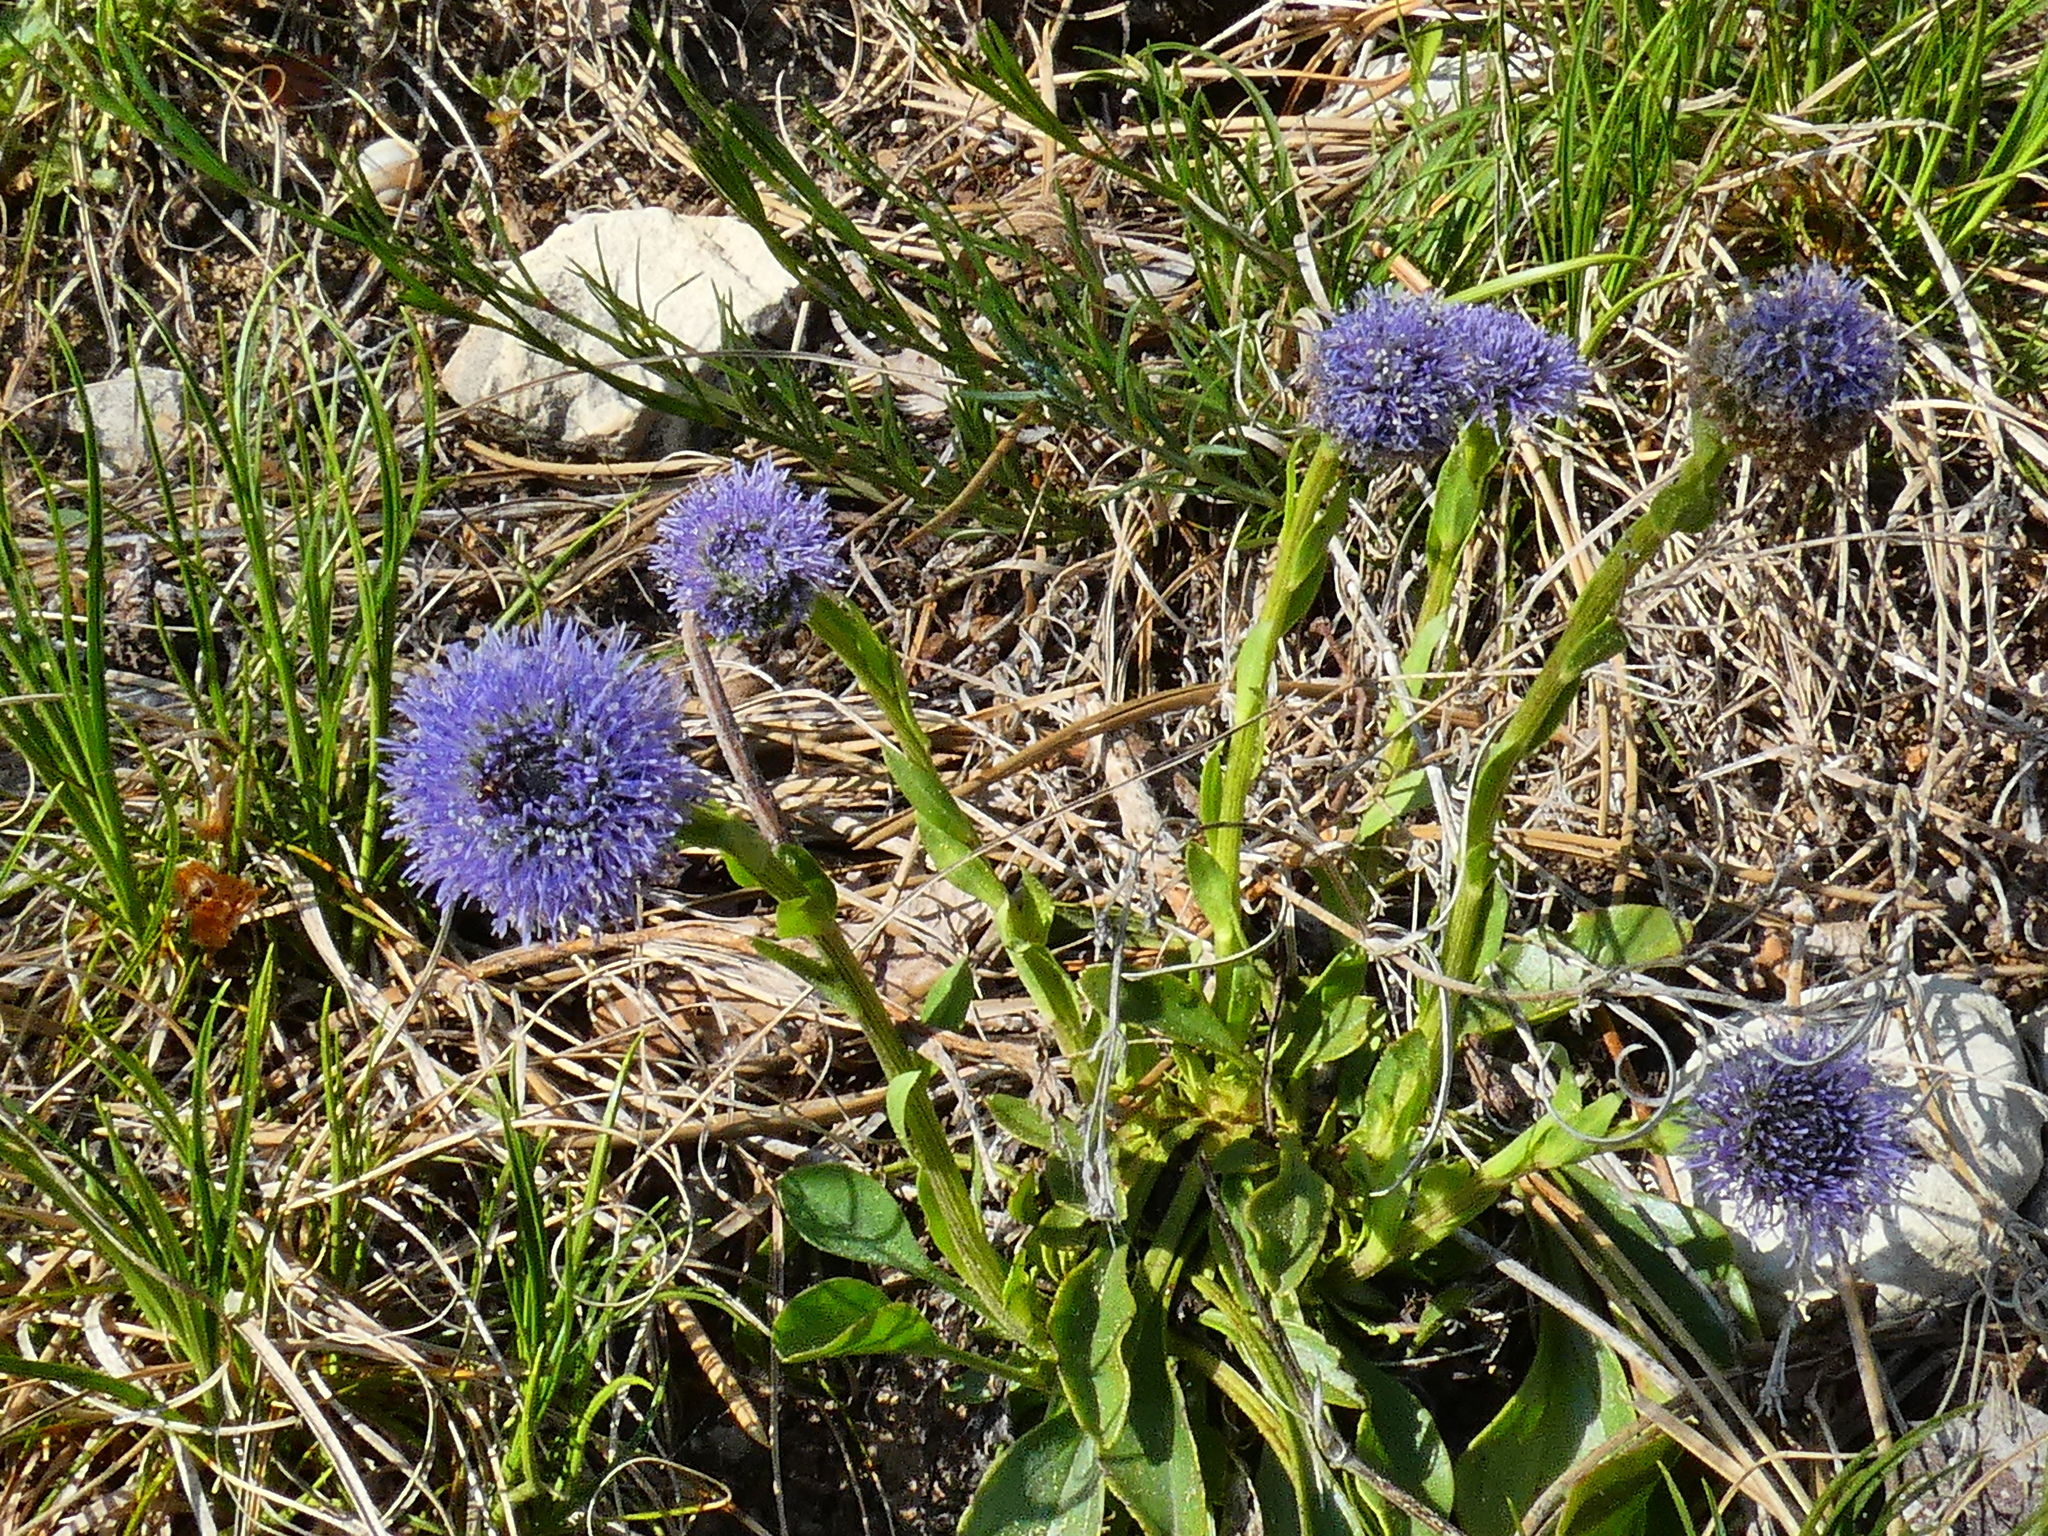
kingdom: Plantae
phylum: Tracheophyta
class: Magnoliopsida
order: Lamiales
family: Plantaginaceae
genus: Globularia
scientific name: Globularia bisnagarica
